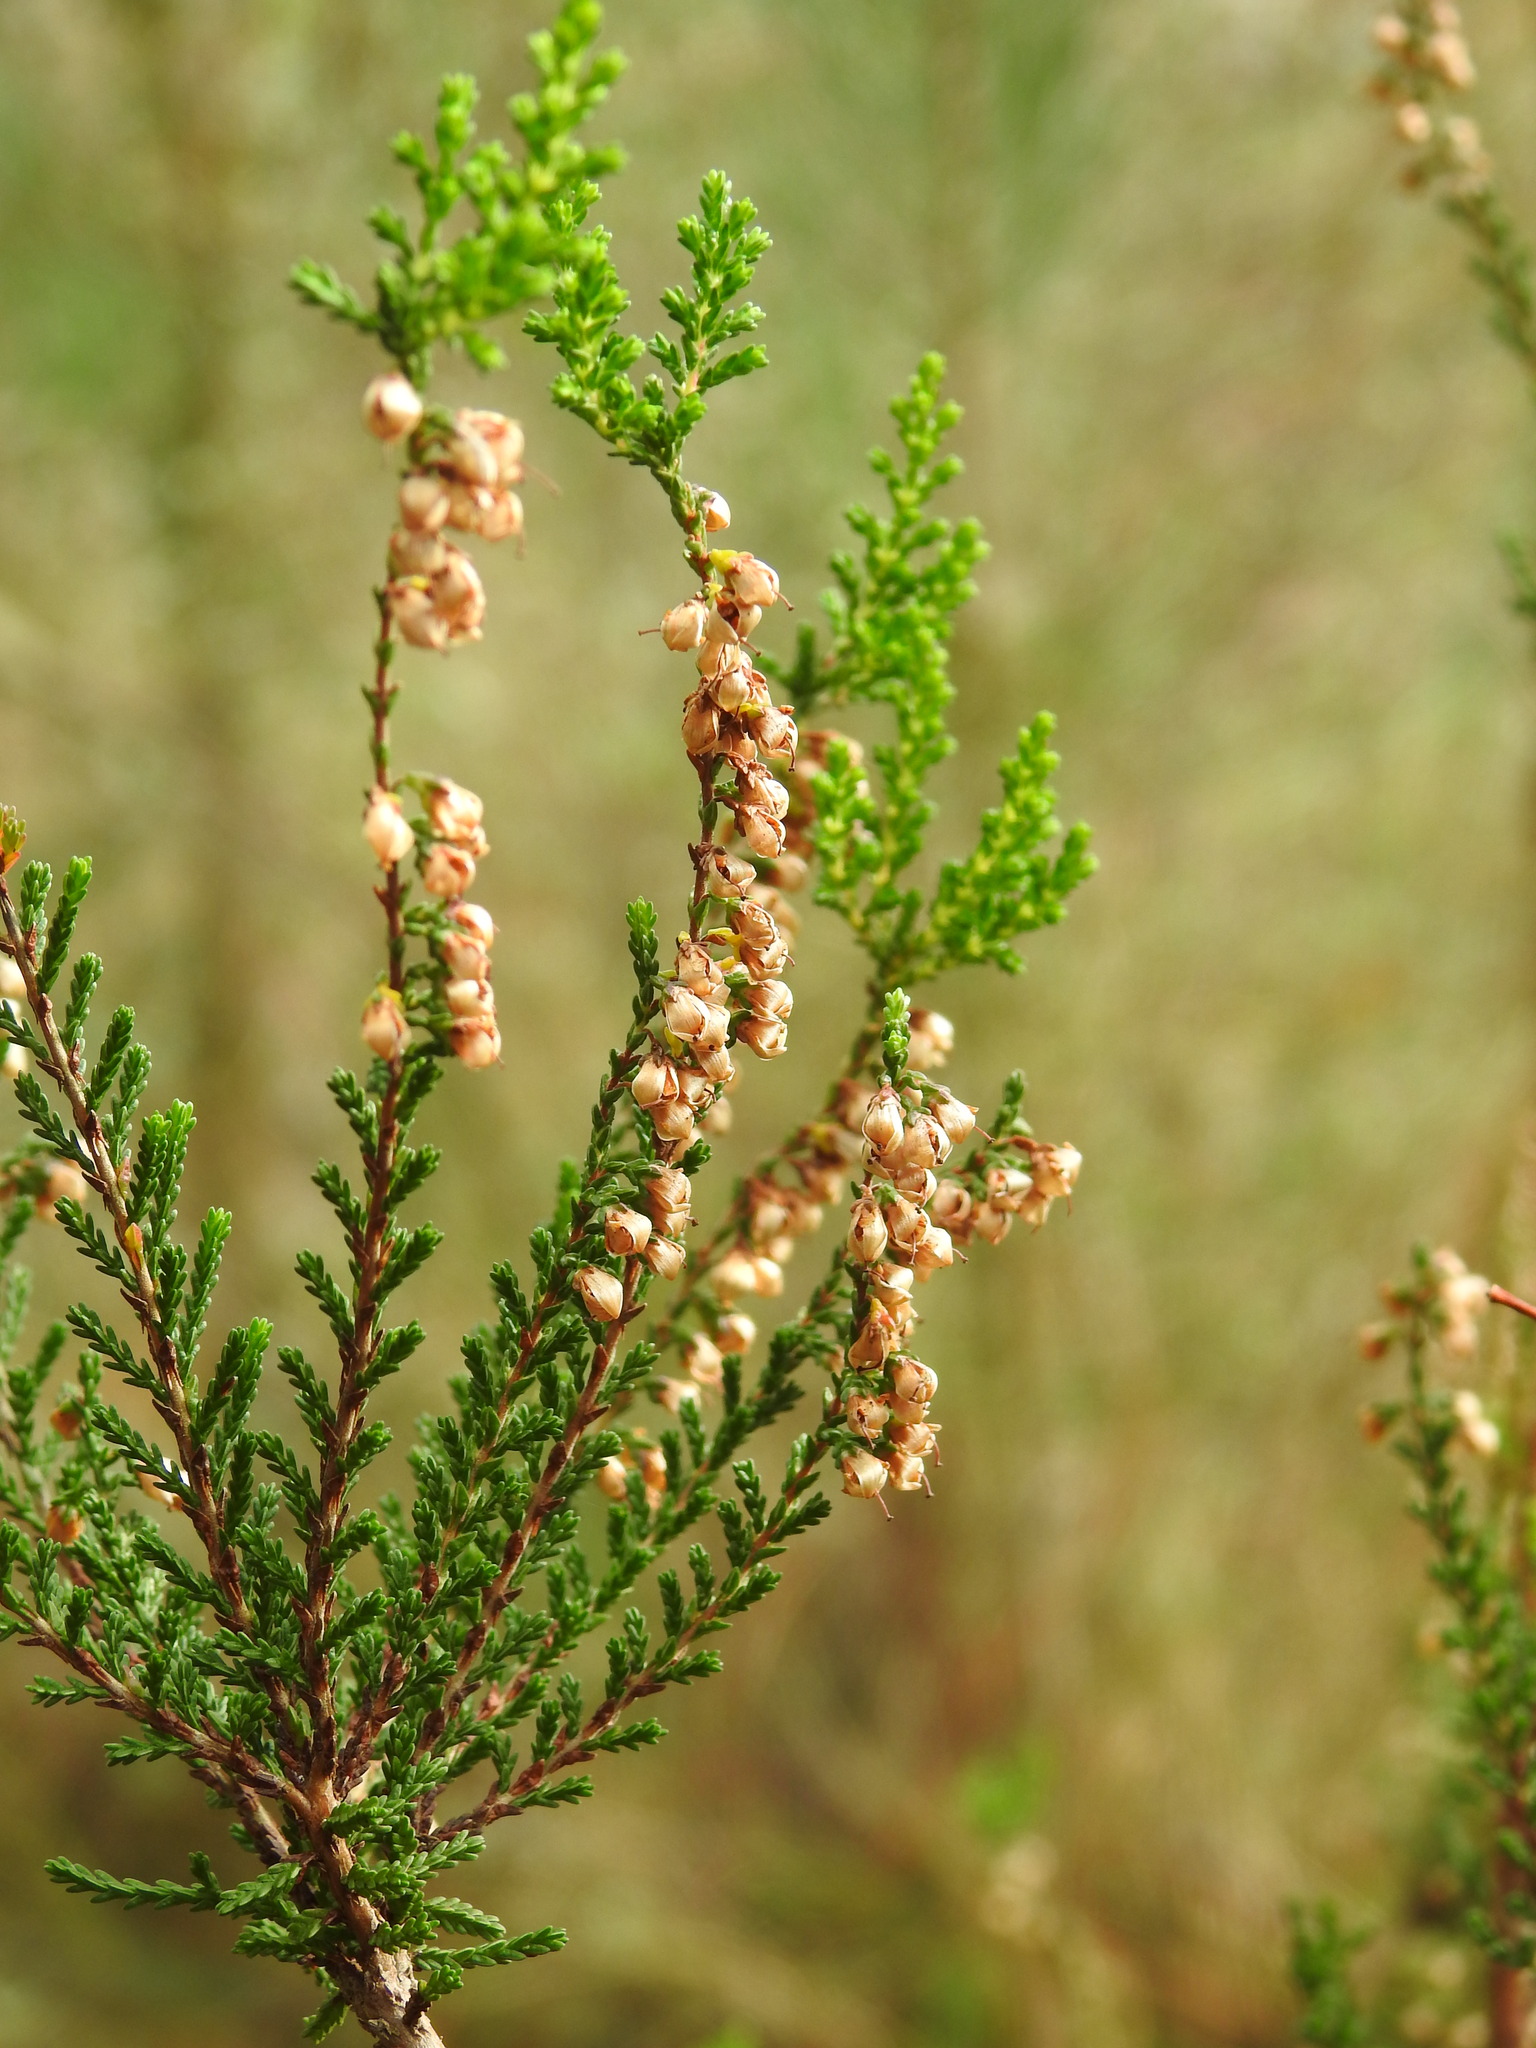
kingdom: Plantae
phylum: Tracheophyta
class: Magnoliopsida
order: Ericales
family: Ericaceae
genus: Calluna
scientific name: Calluna vulgaris
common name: Heather
